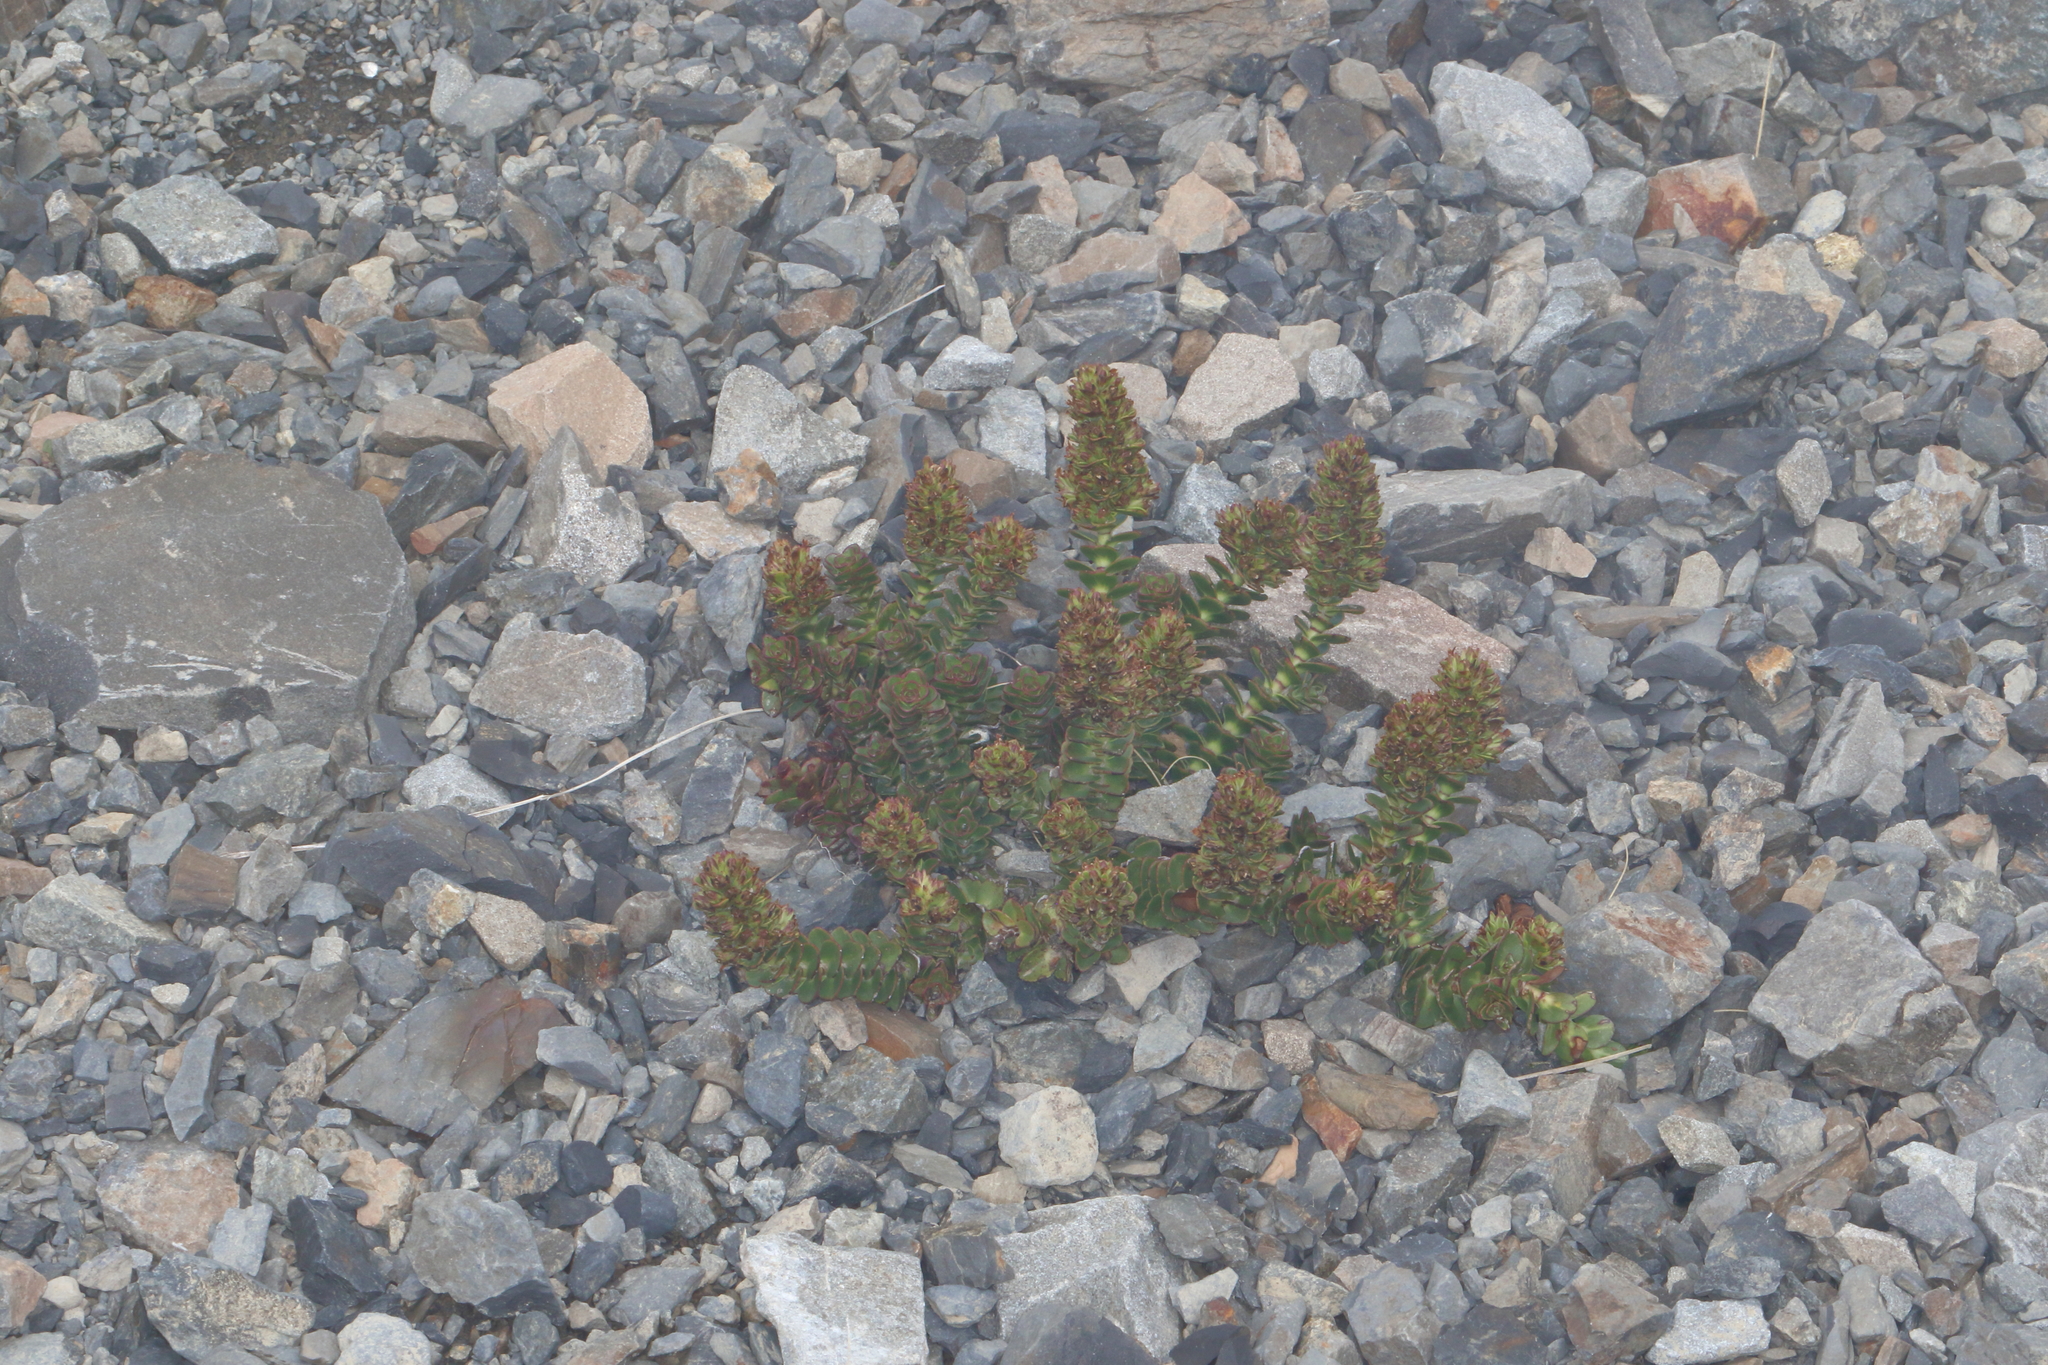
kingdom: Plantae
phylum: Tracheophyta
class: Magnoliopsida
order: Lamiales
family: Plantaginaceae
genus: Veronica
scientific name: Veronica haastii
